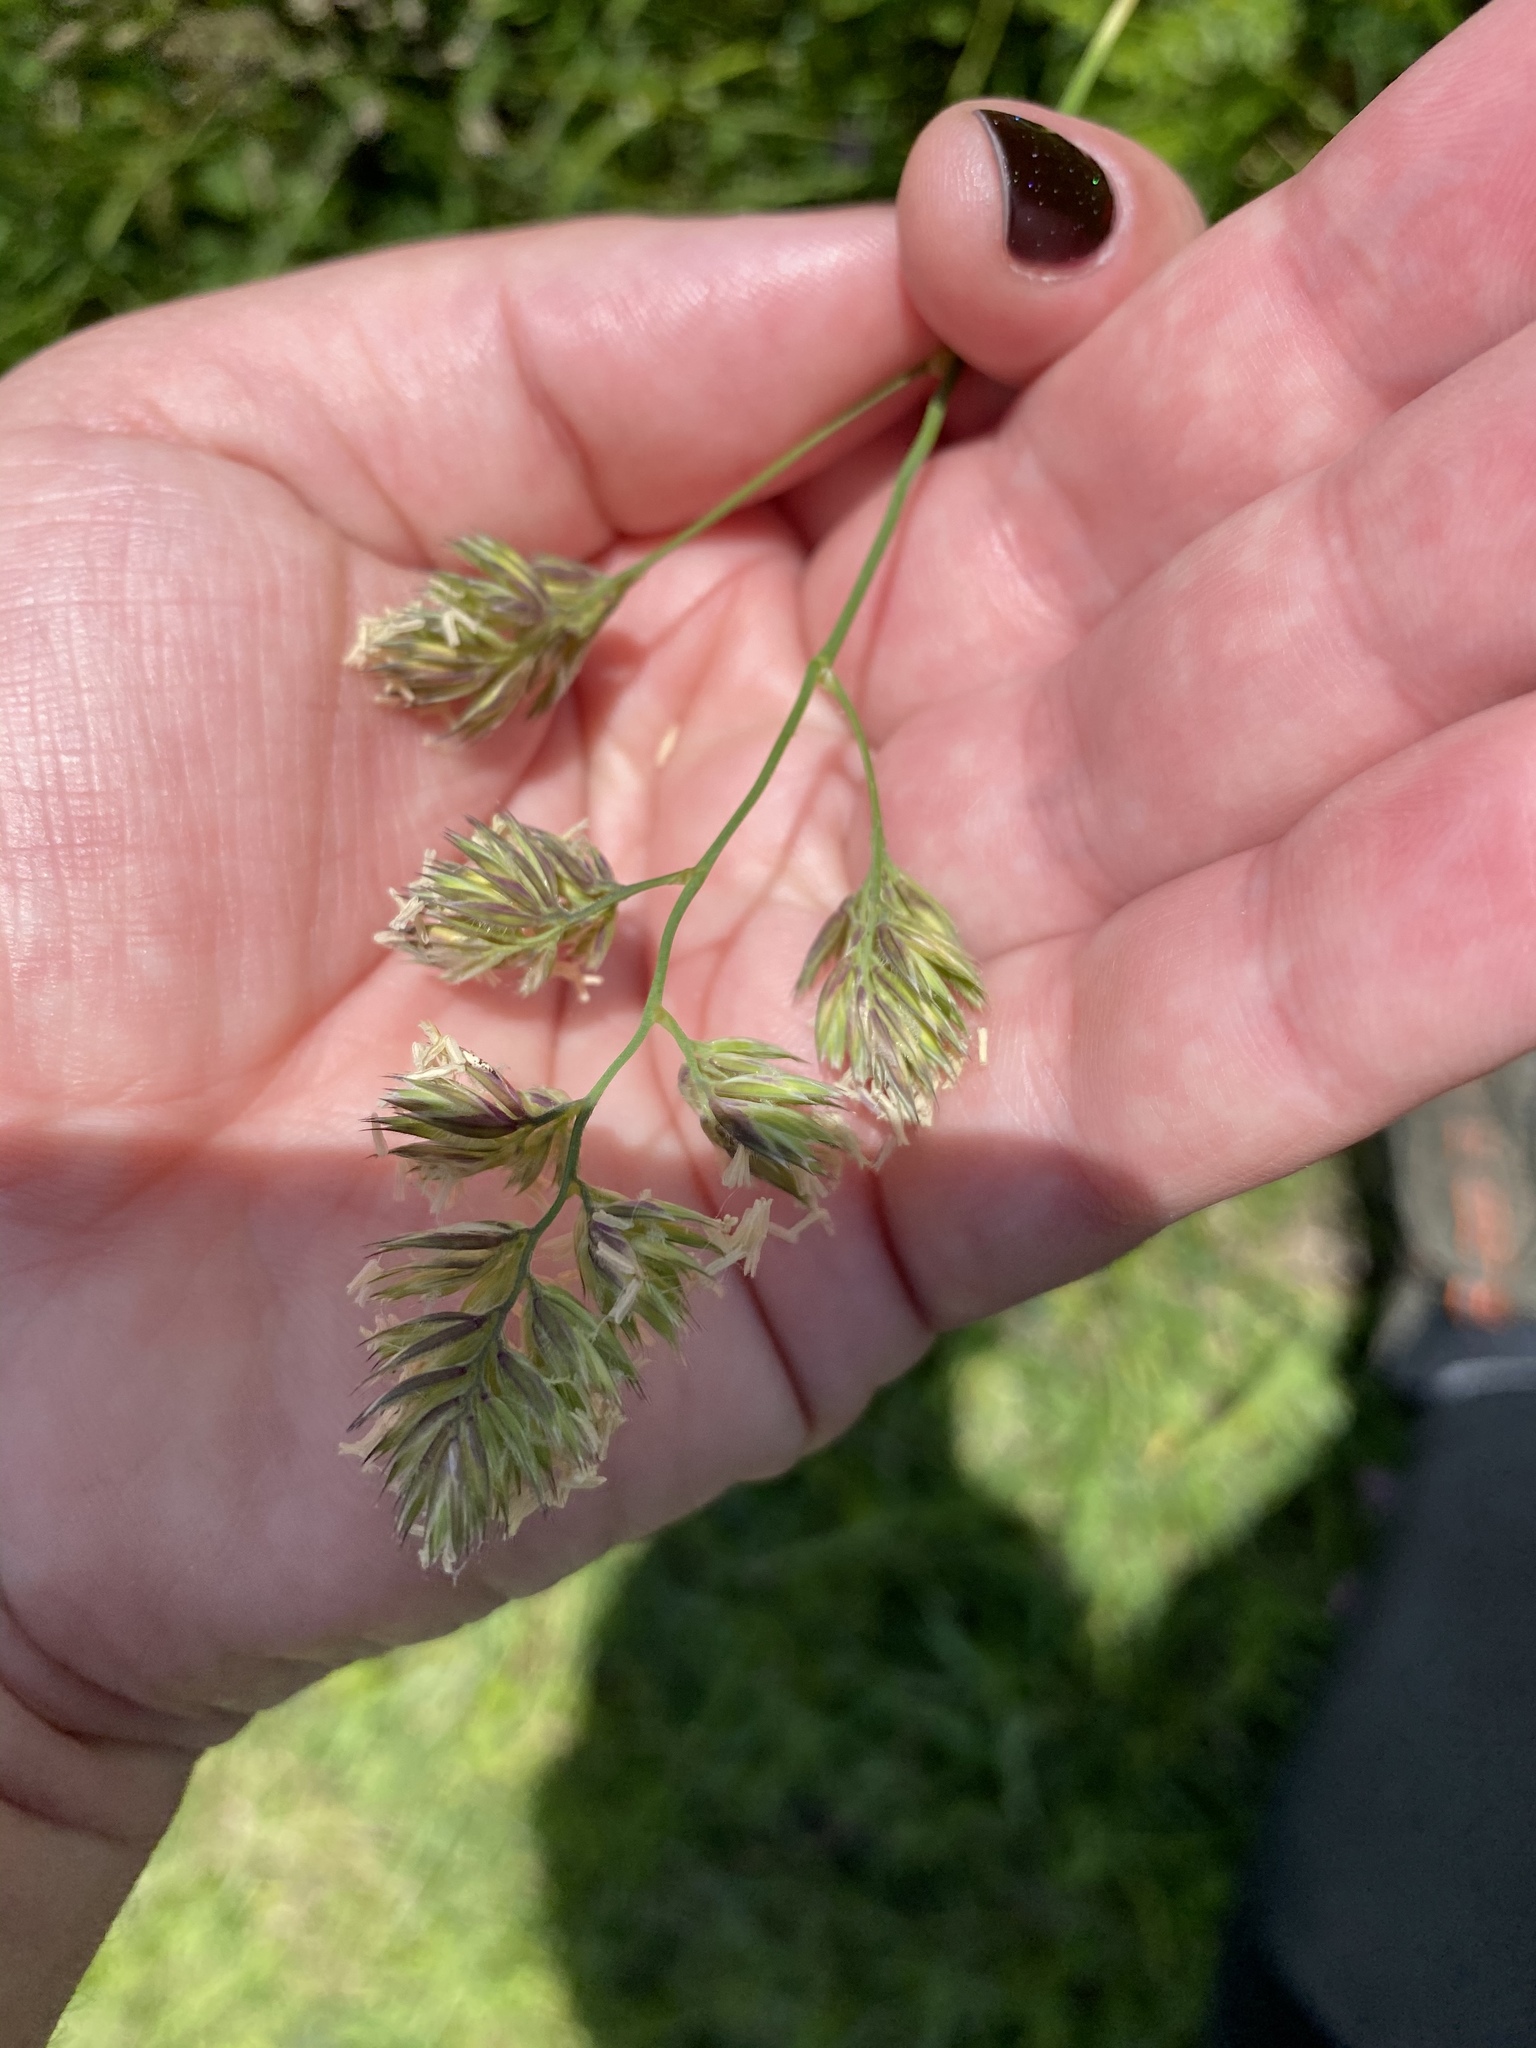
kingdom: Plantae
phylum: Tracheophyta
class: Liliopsida
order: Poales
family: Poaceae
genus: Dactylis
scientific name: Dactylis glomerata
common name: Orchardgrass
